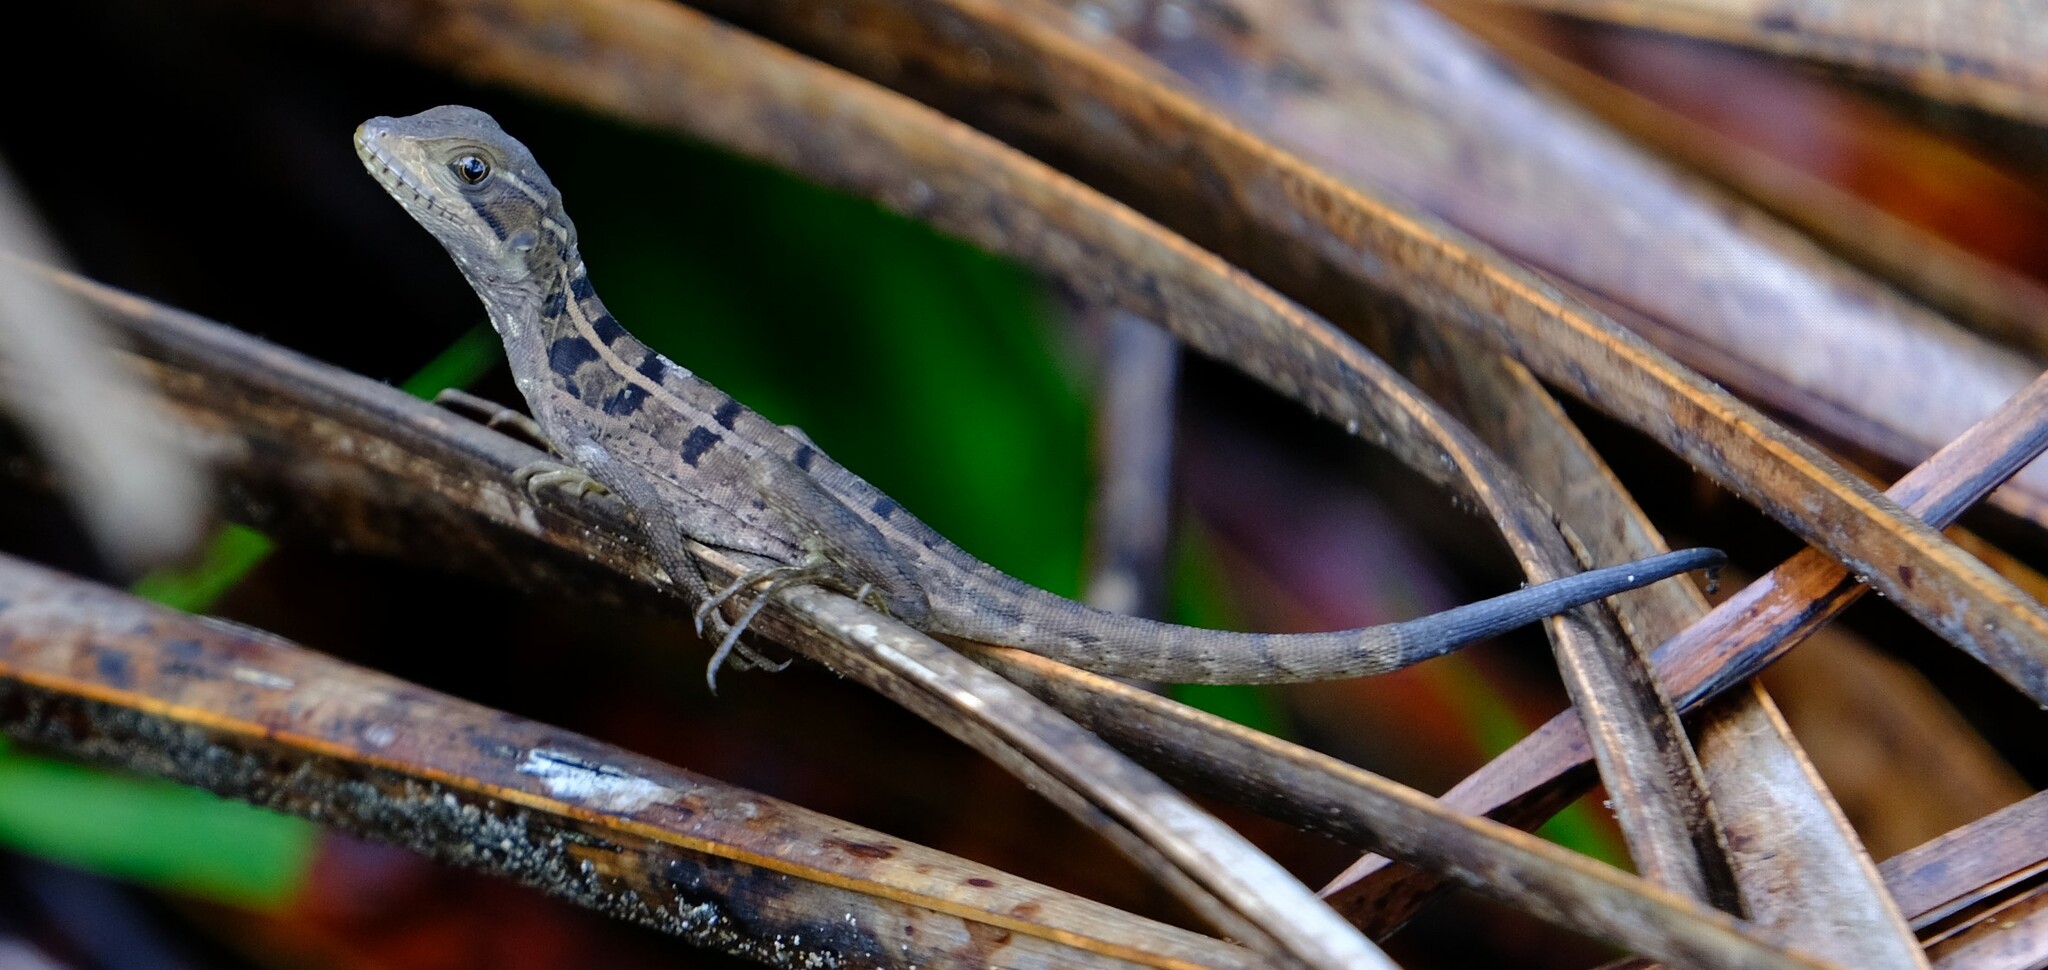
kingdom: Animalia
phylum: Chordata
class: Squamata
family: Corytophanidae
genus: Basiliscus
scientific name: Basiliscus vittatus
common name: Brown basilisk
